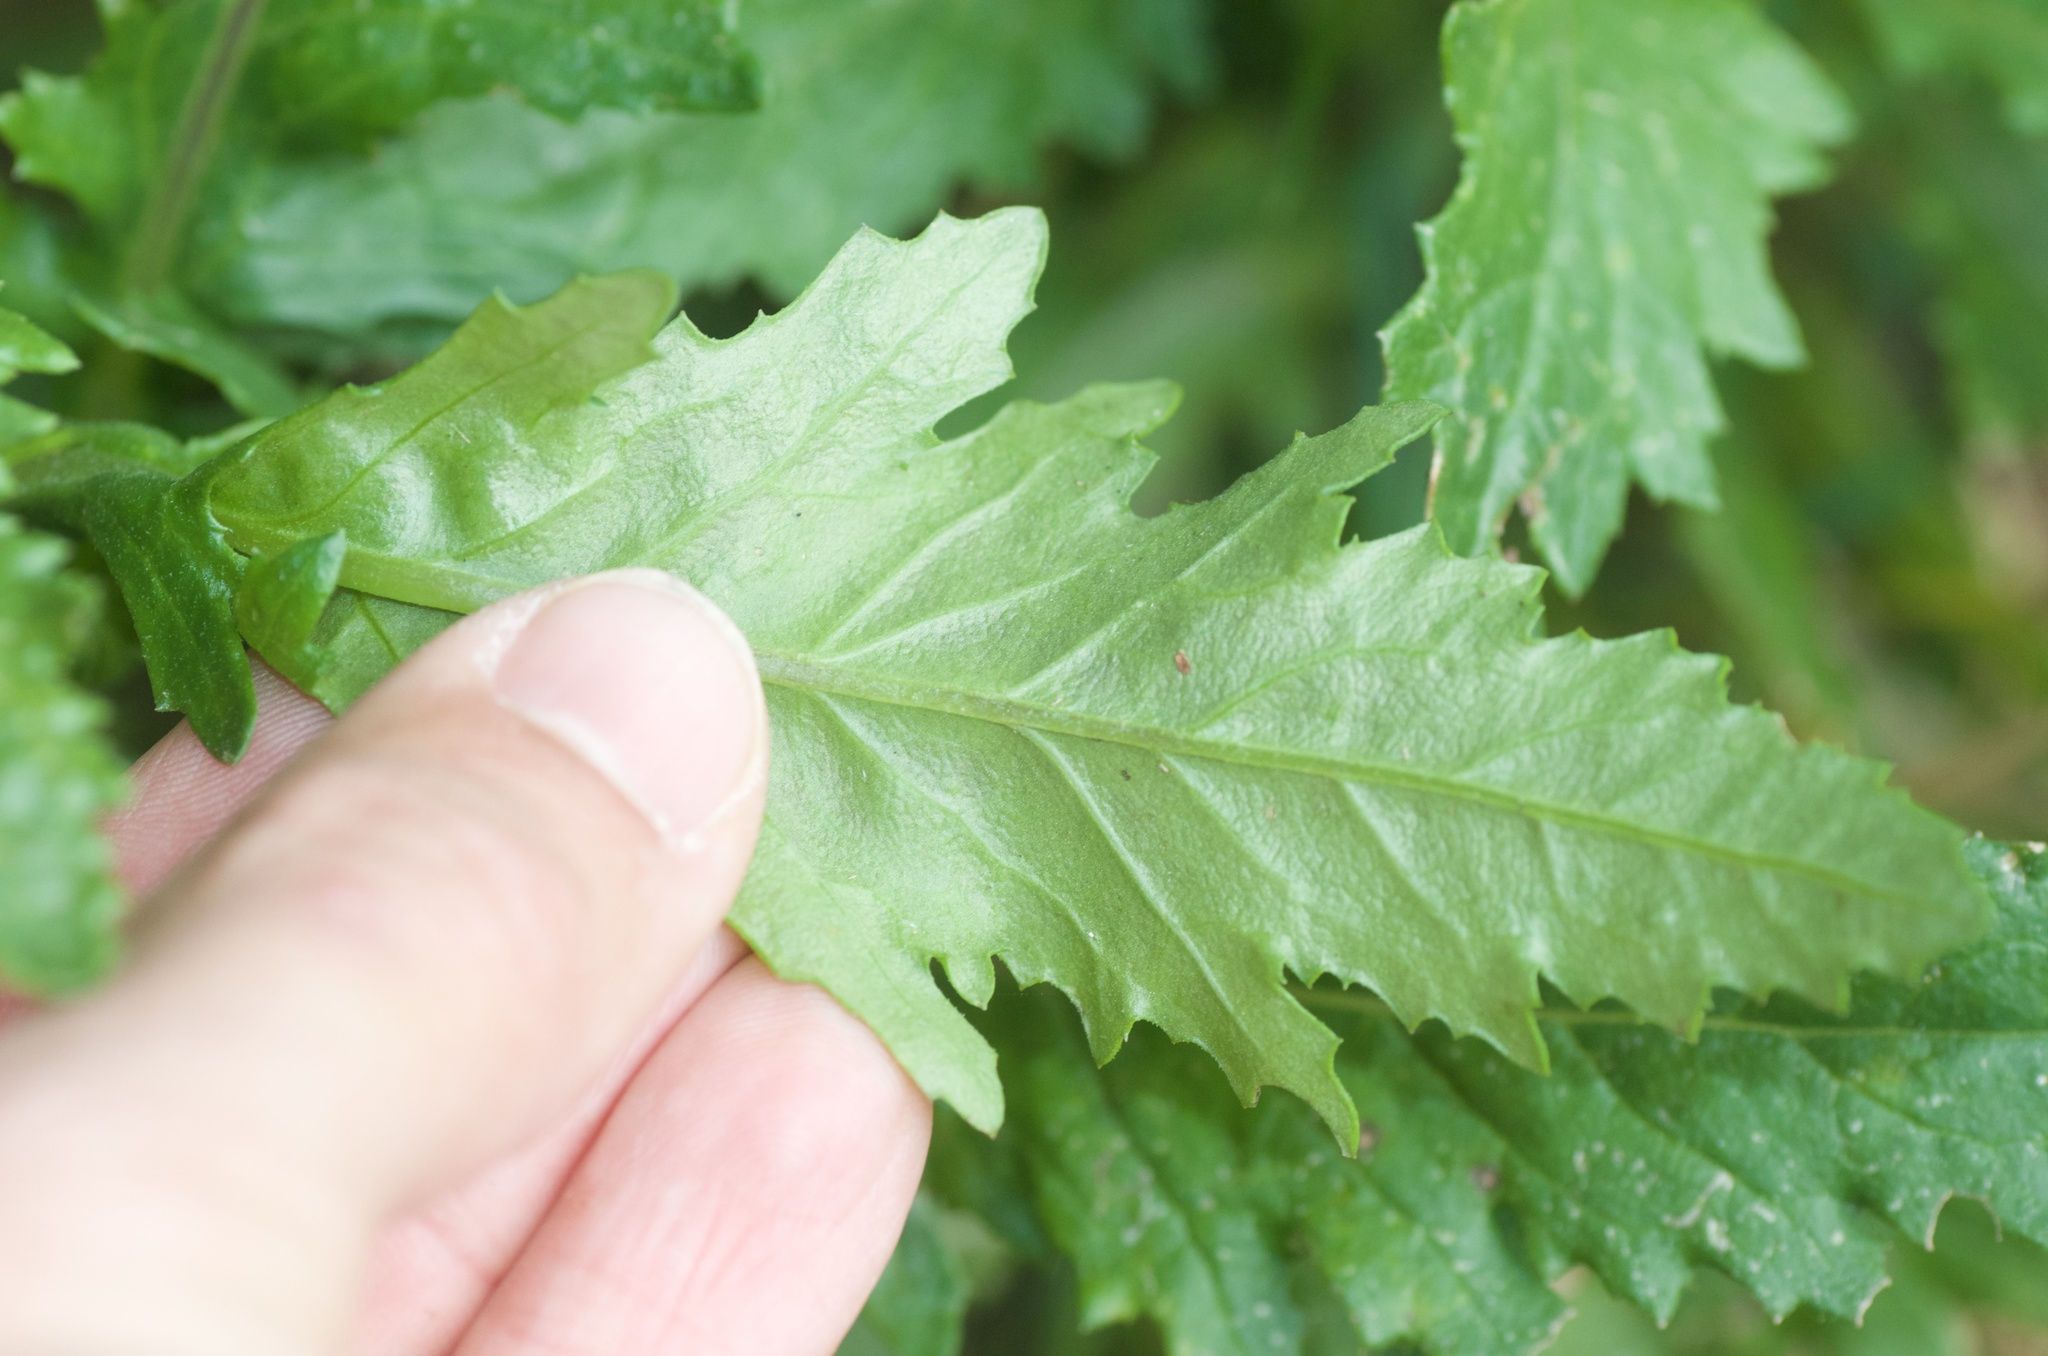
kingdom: Plantae
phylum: Tracheophyta
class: Magnoliopsida
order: Asterales
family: Asteraceae
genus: Senecio
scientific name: Senecio biserratus
